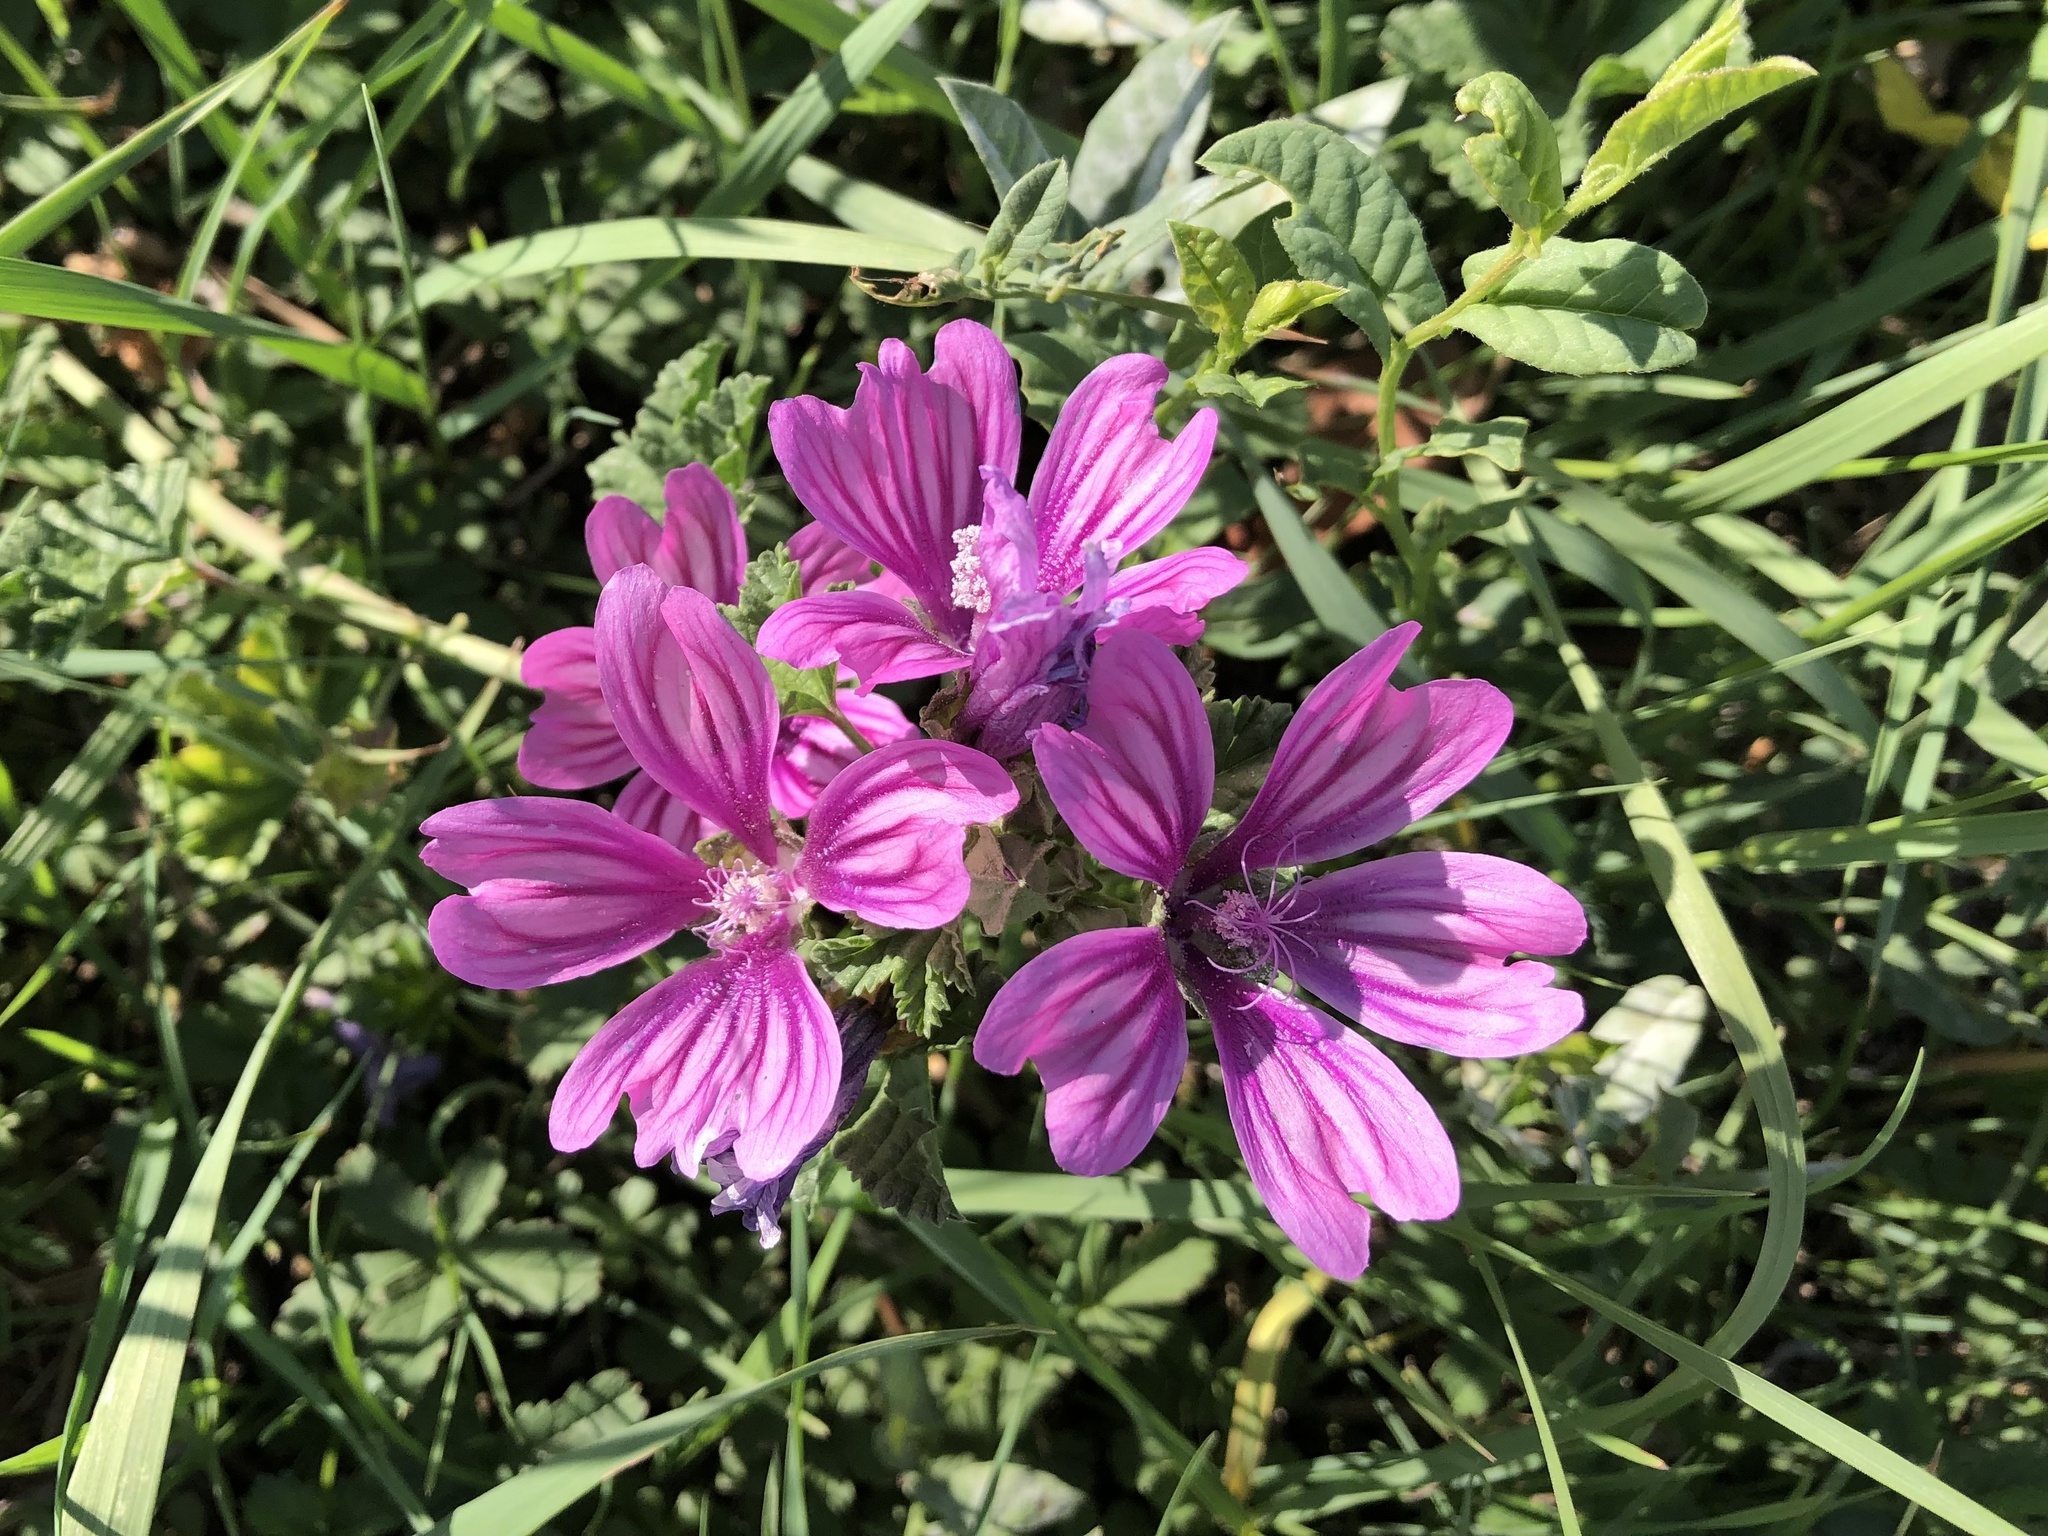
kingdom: Plantae
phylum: Tracheophyta
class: Magnoliopsida
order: Malvales
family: Malvaceae
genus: Malva
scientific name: Malva sylvestris
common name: Common mallow
